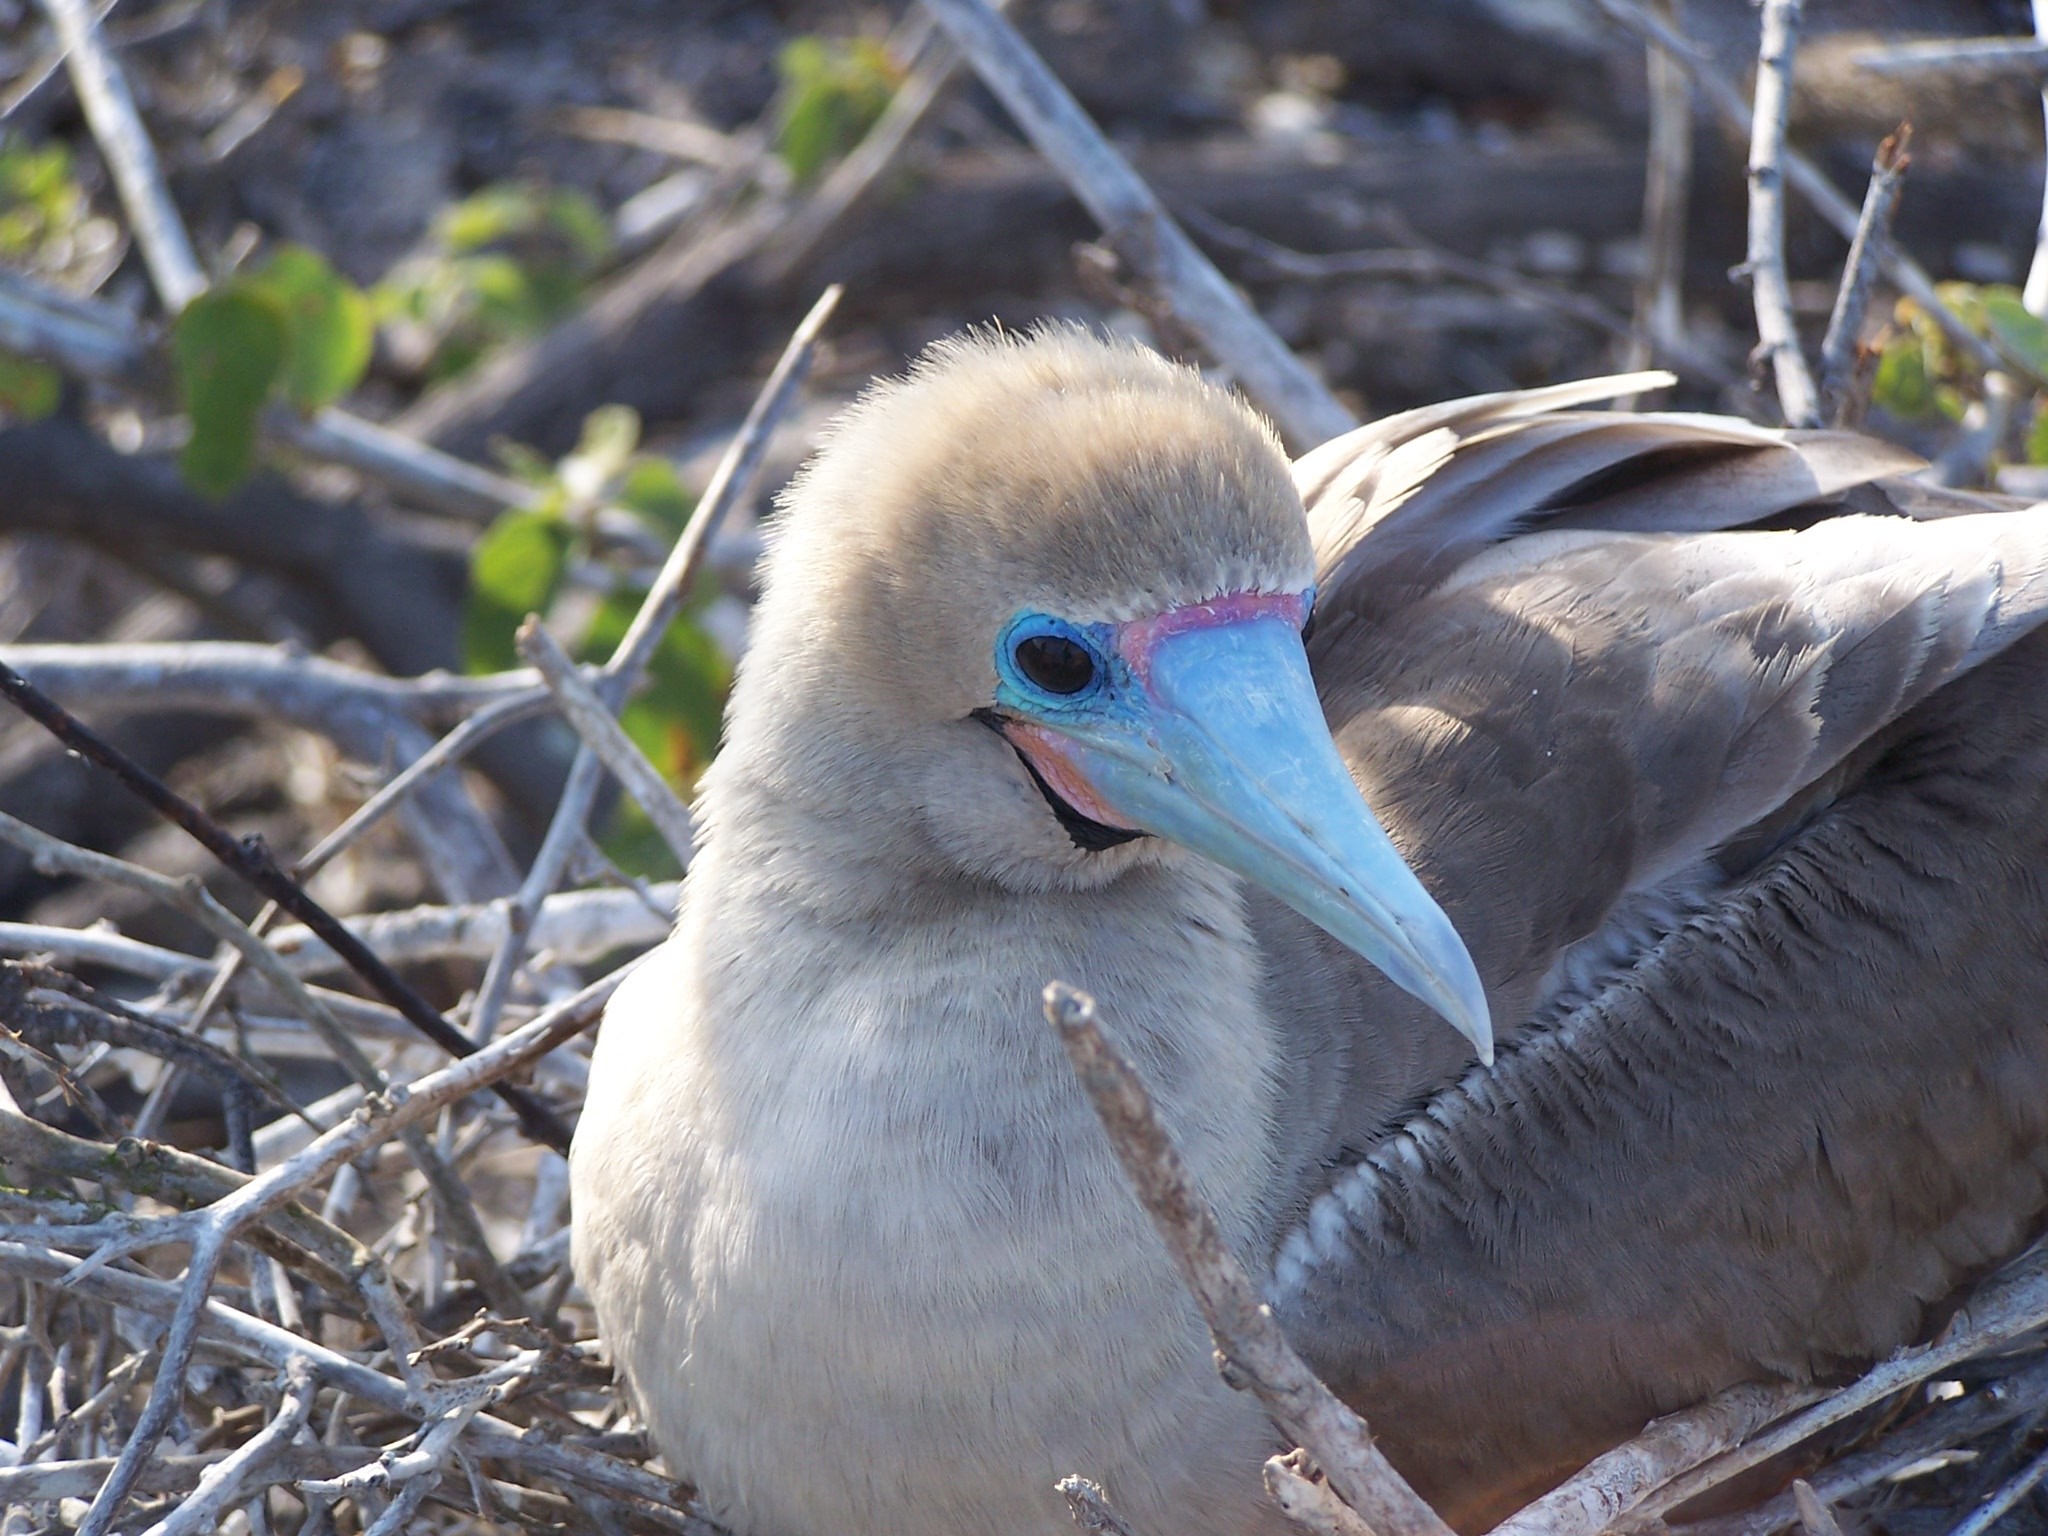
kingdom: Animalia
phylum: Chordata
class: Aves
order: Suliformes
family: Sulidae
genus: Sula
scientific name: Sula sula
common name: Red-footed booby
